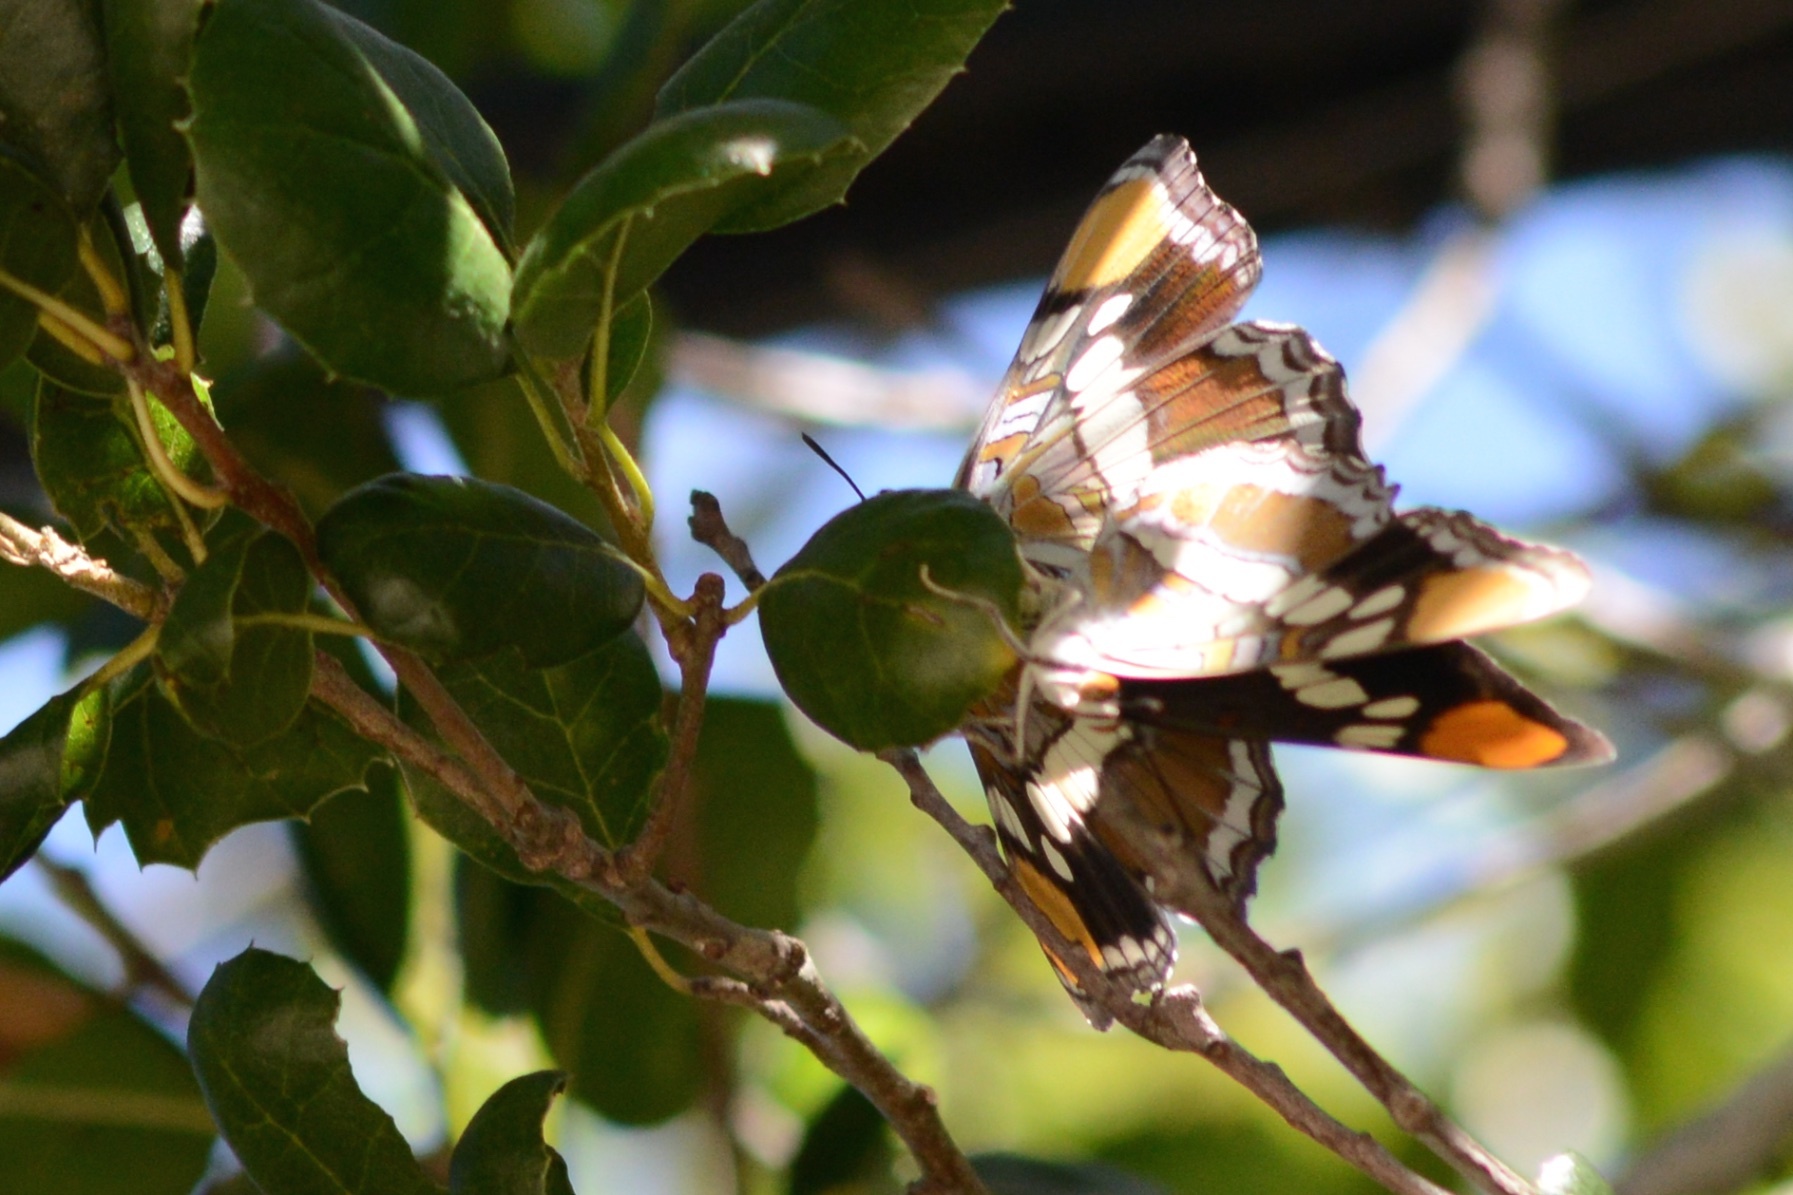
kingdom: Animalia
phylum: Arthropoda
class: Insecta
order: Lepidoptera
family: Nymphalidae
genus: Limenitis
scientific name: Limenitis bredowii
